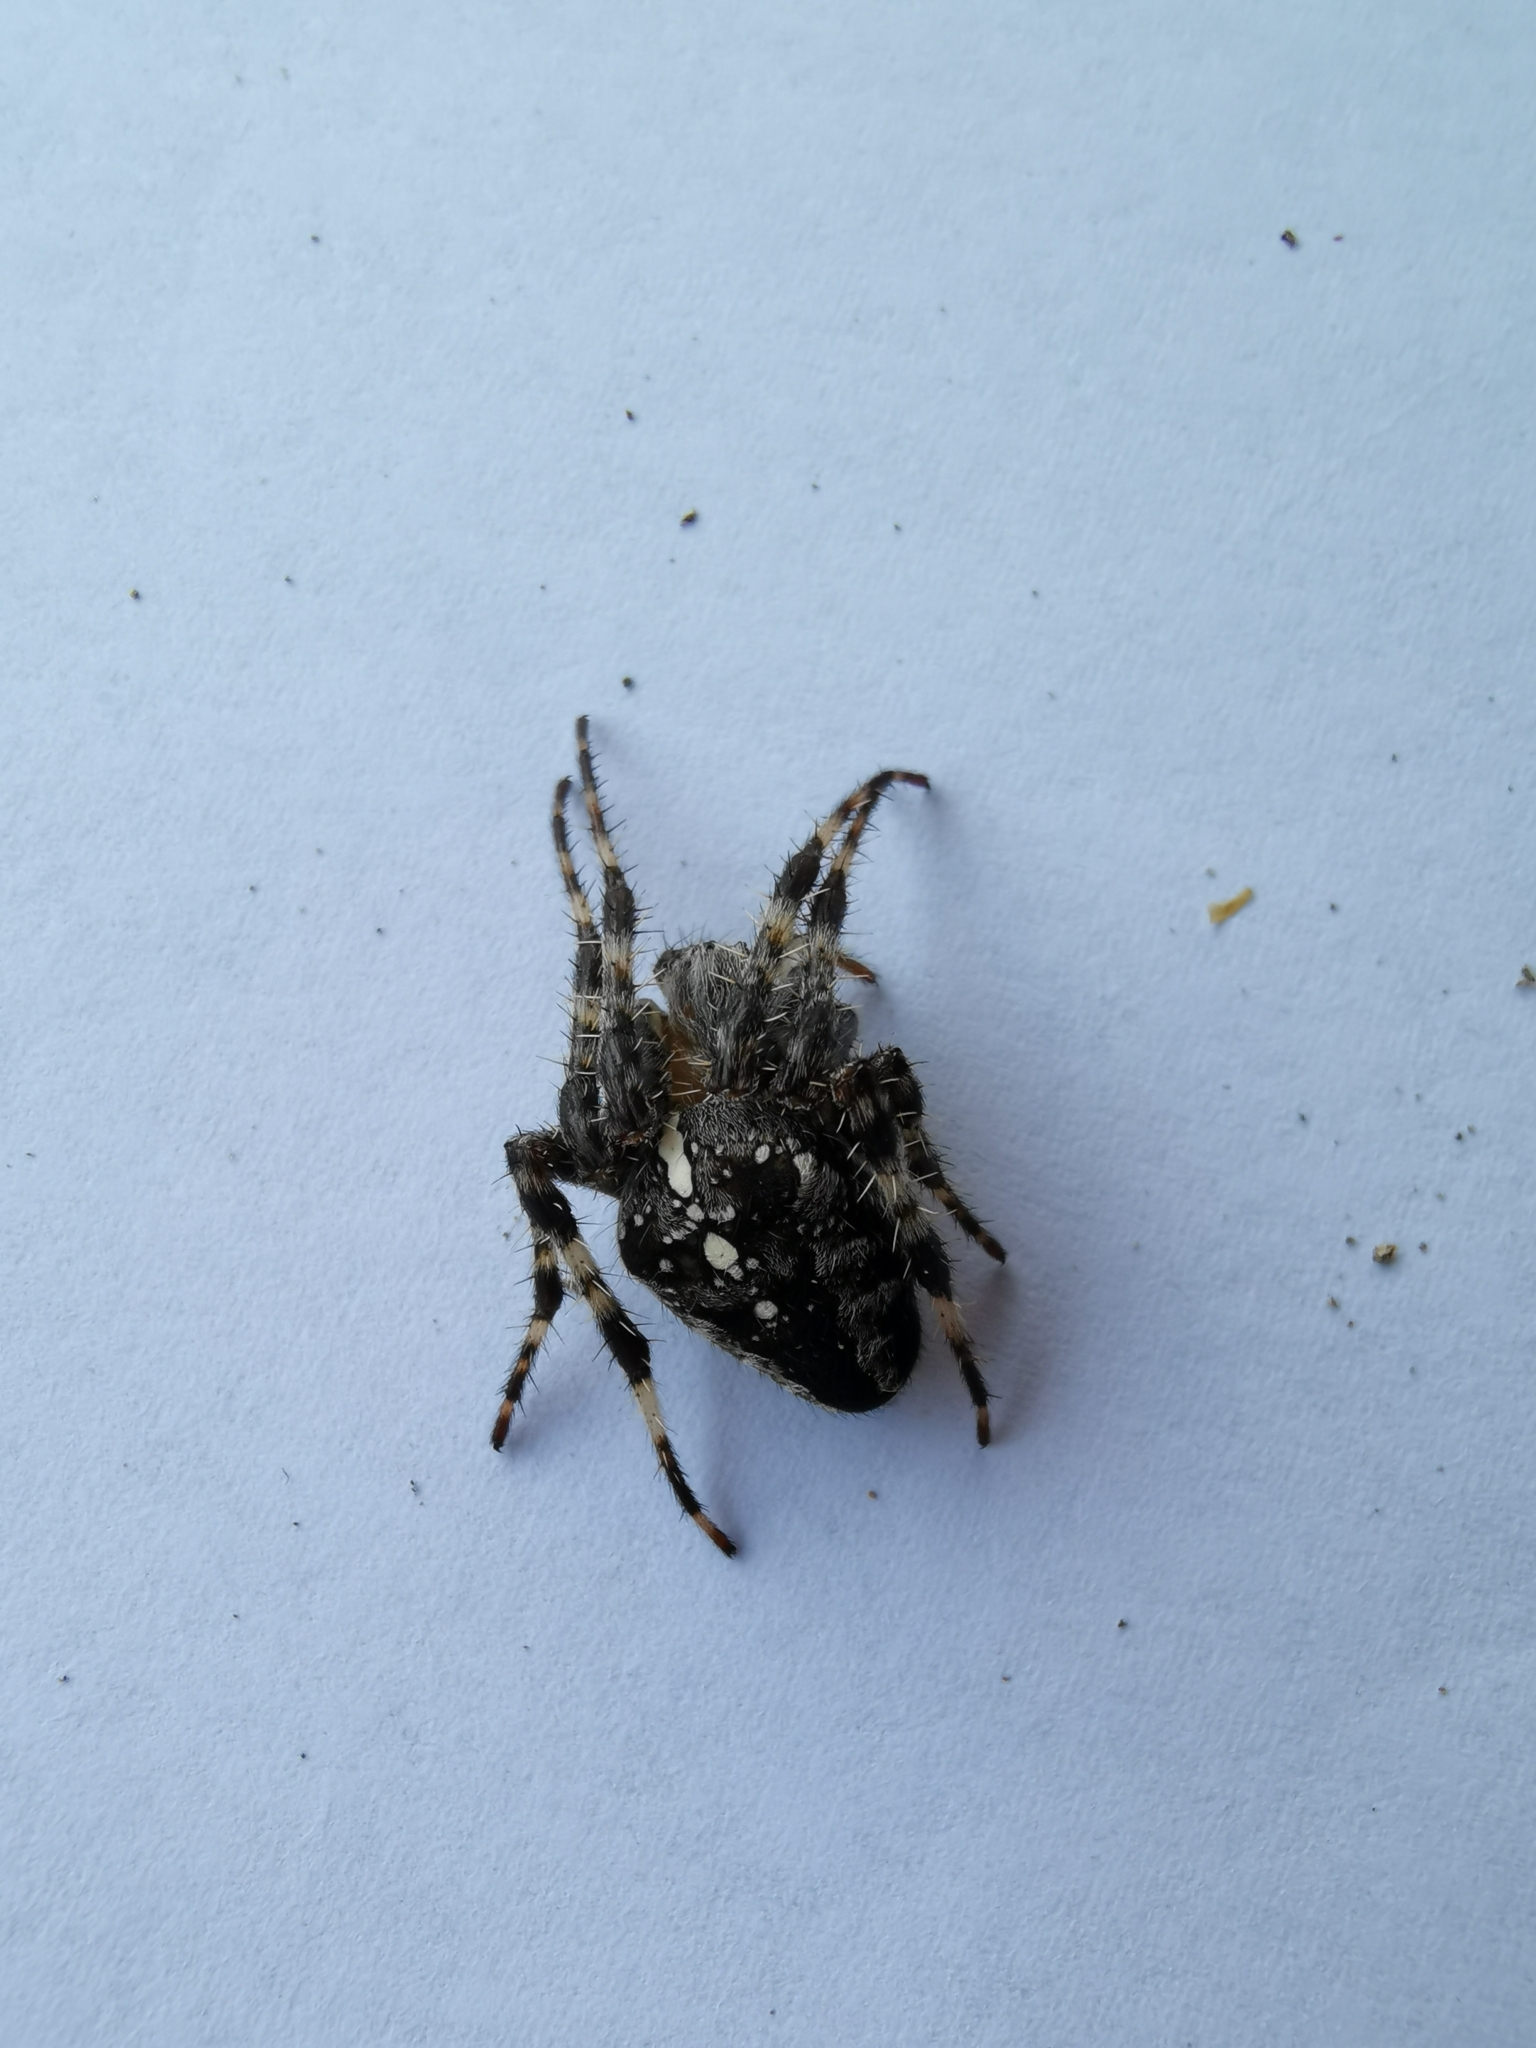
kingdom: Animalia
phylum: Arthropoda
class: Arachnida
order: Araneae
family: Araneidae
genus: Araneus
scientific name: Araneus diadematus
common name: Cross orbweaver
